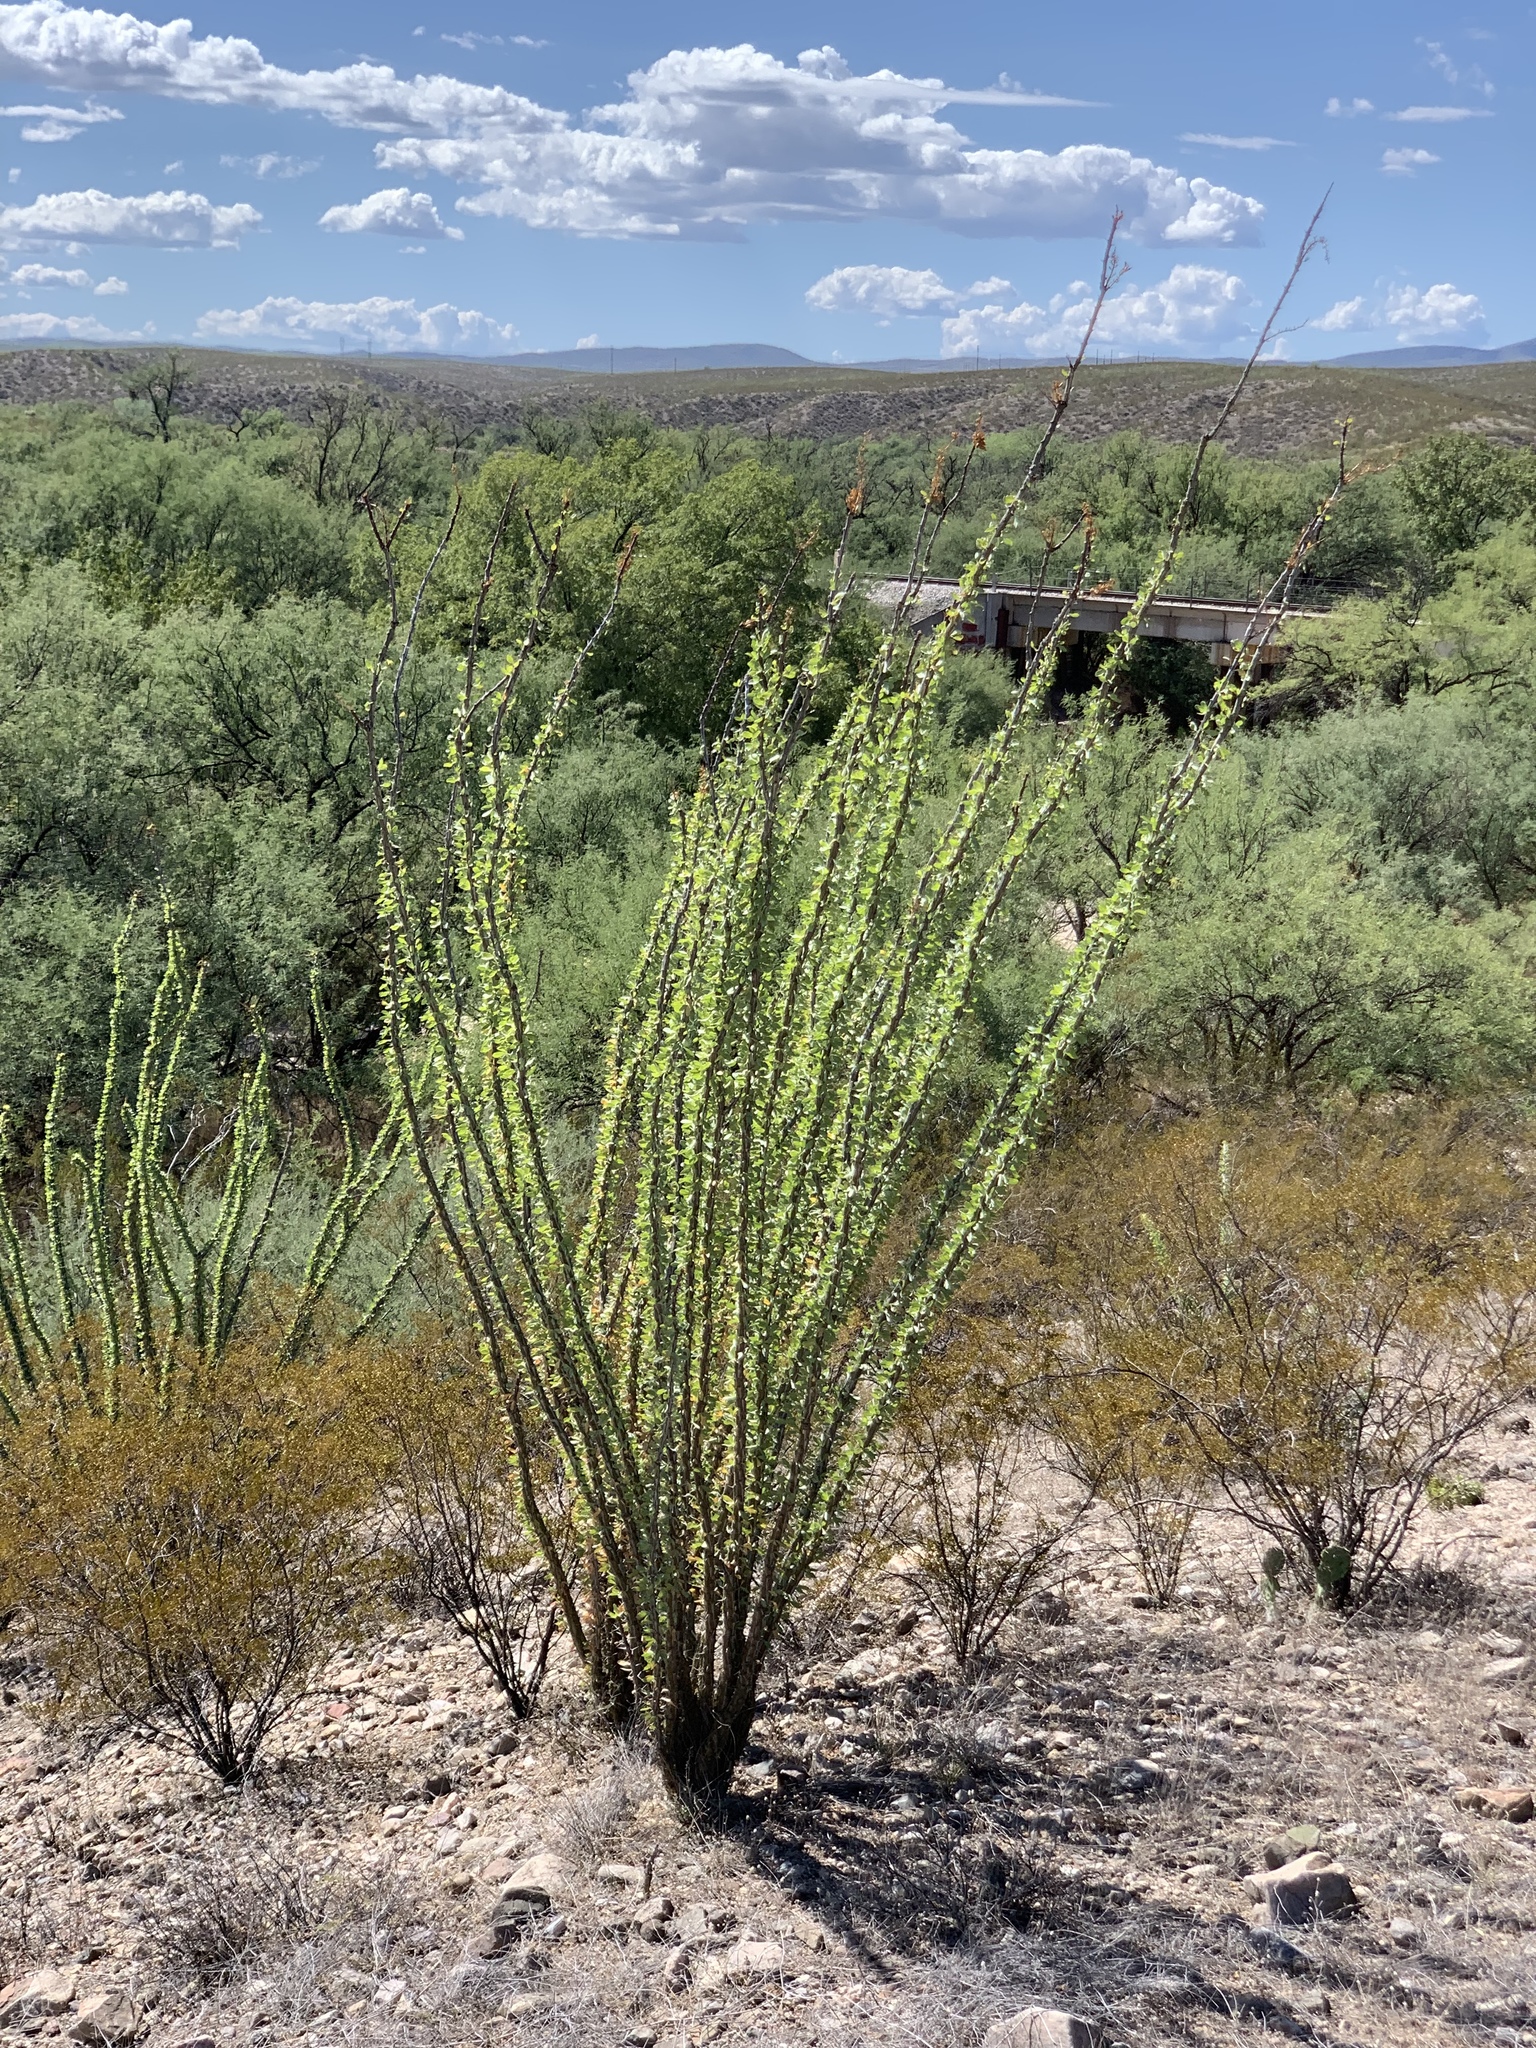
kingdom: Plantae
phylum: Tracheophyta
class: Magnoliopsida
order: Ericales
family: Fouquieriaceae
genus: Fouquieria
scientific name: Fouquieria splendens
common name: Vine-cactus
